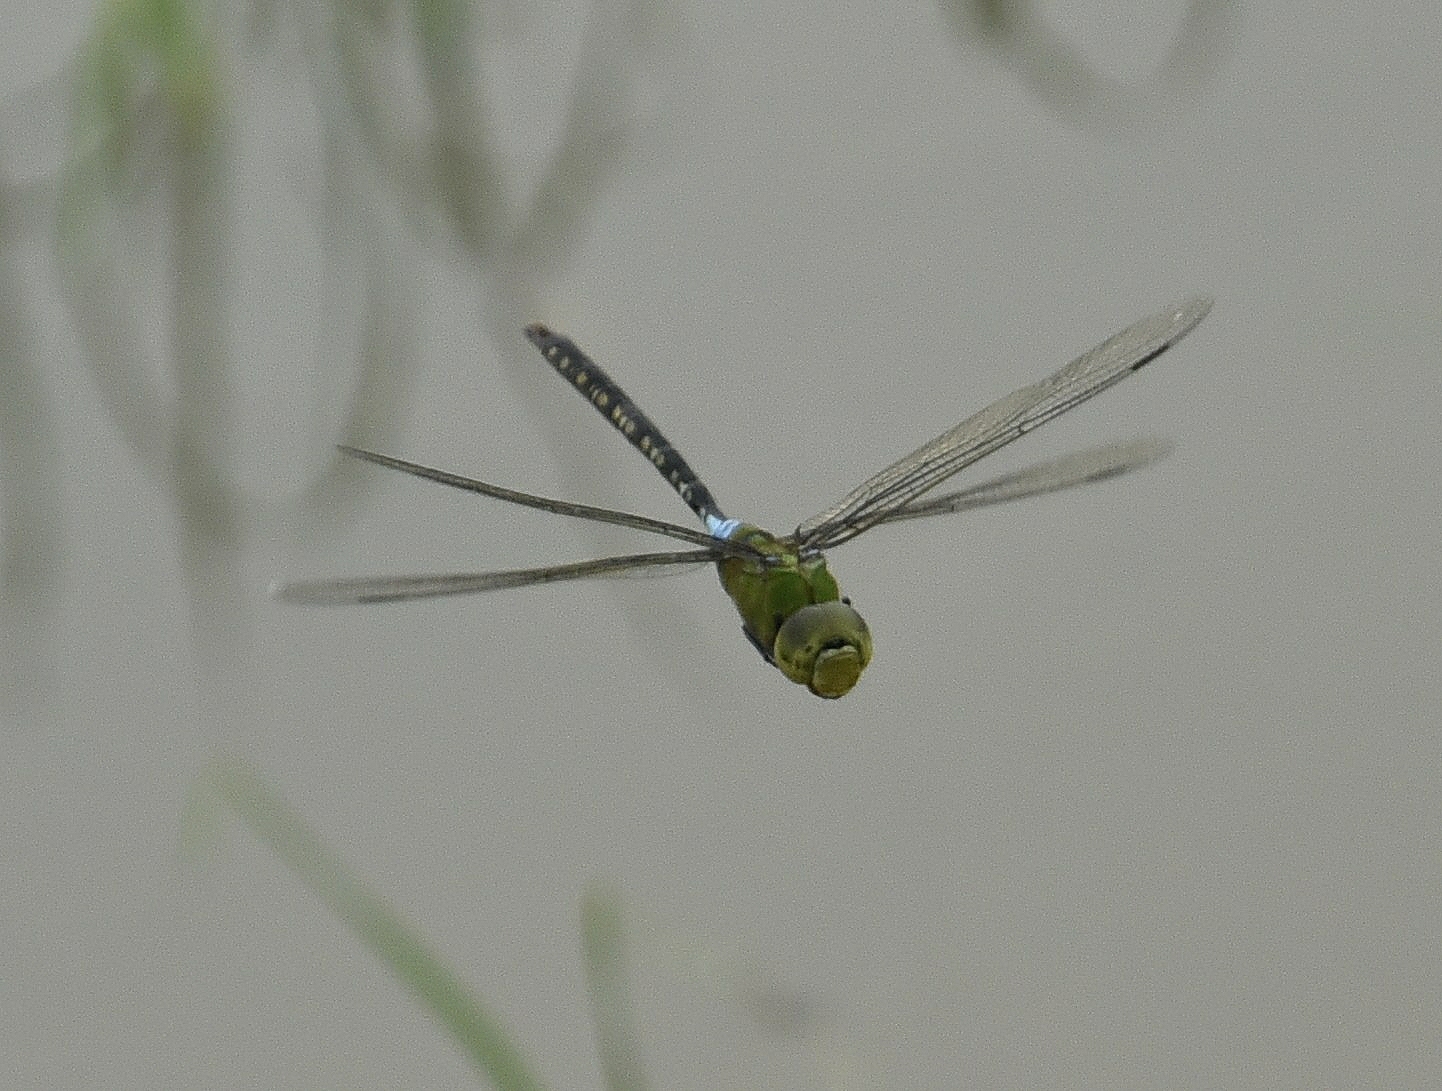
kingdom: Animalia
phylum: Arthropoda
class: Insecta
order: Odonata
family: Aeshnidae
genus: Anax
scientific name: Anax guttatus
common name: Emperor
